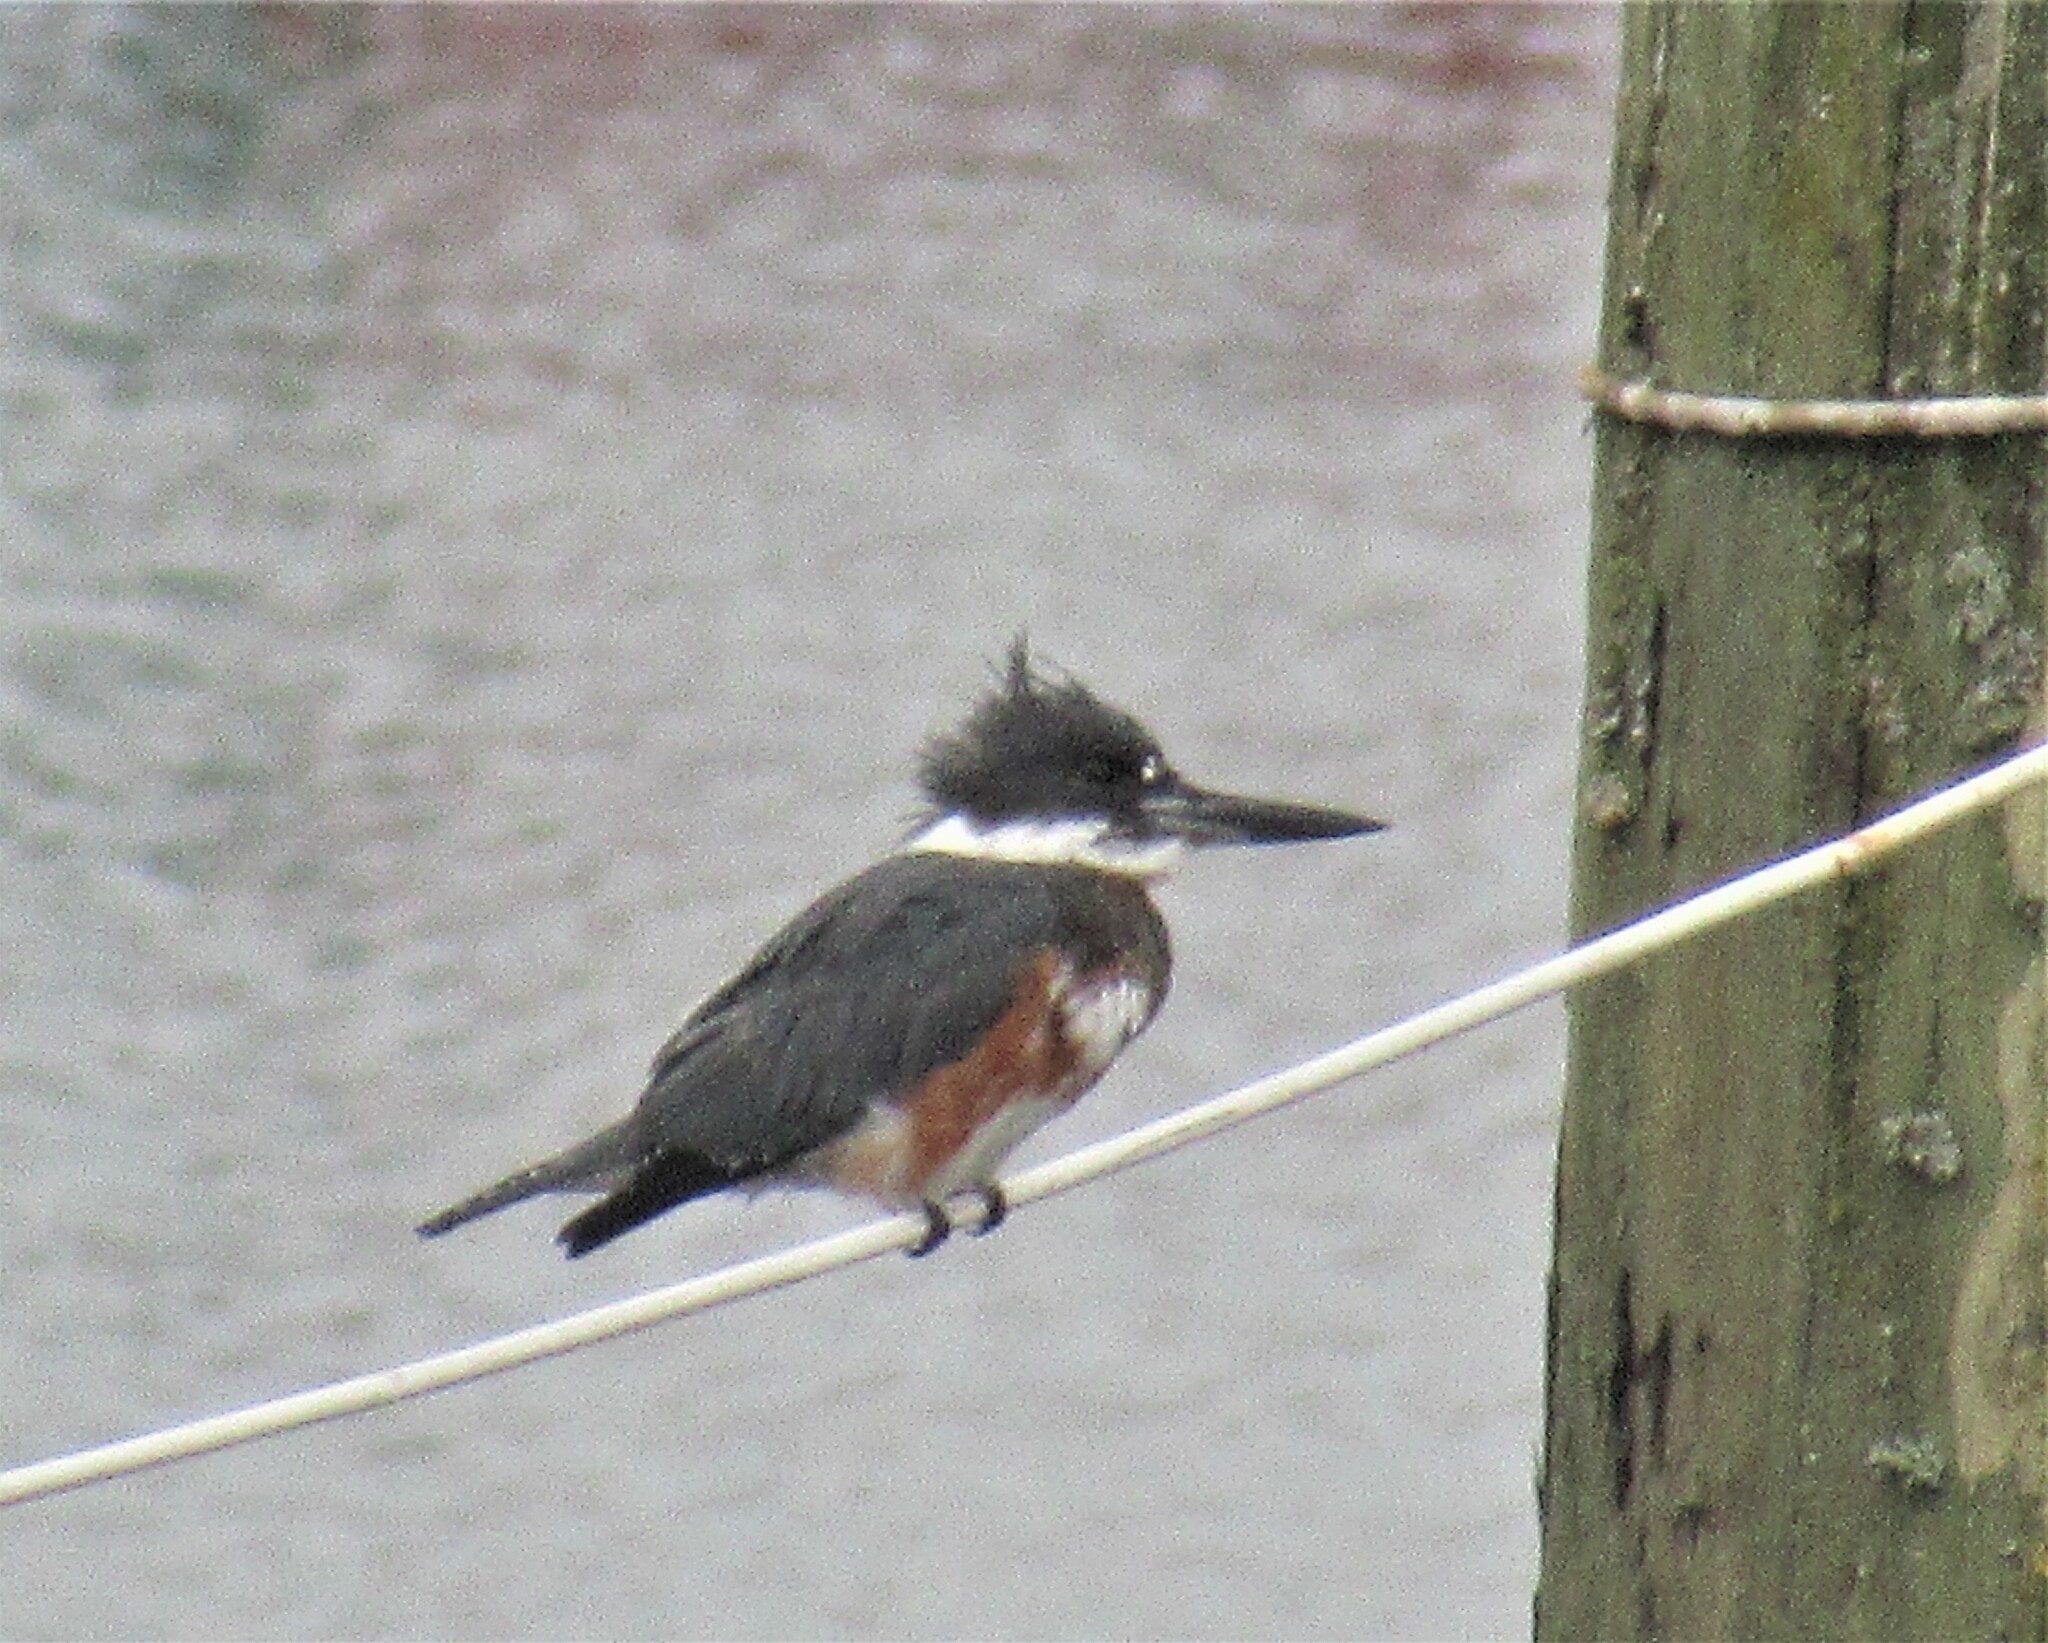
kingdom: Animalia
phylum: Chordata
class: Aves
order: Coraciiformes
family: Alcedinidae
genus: Megaceryle
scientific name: Megaceryle alcyon
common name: Belted kingfisher
